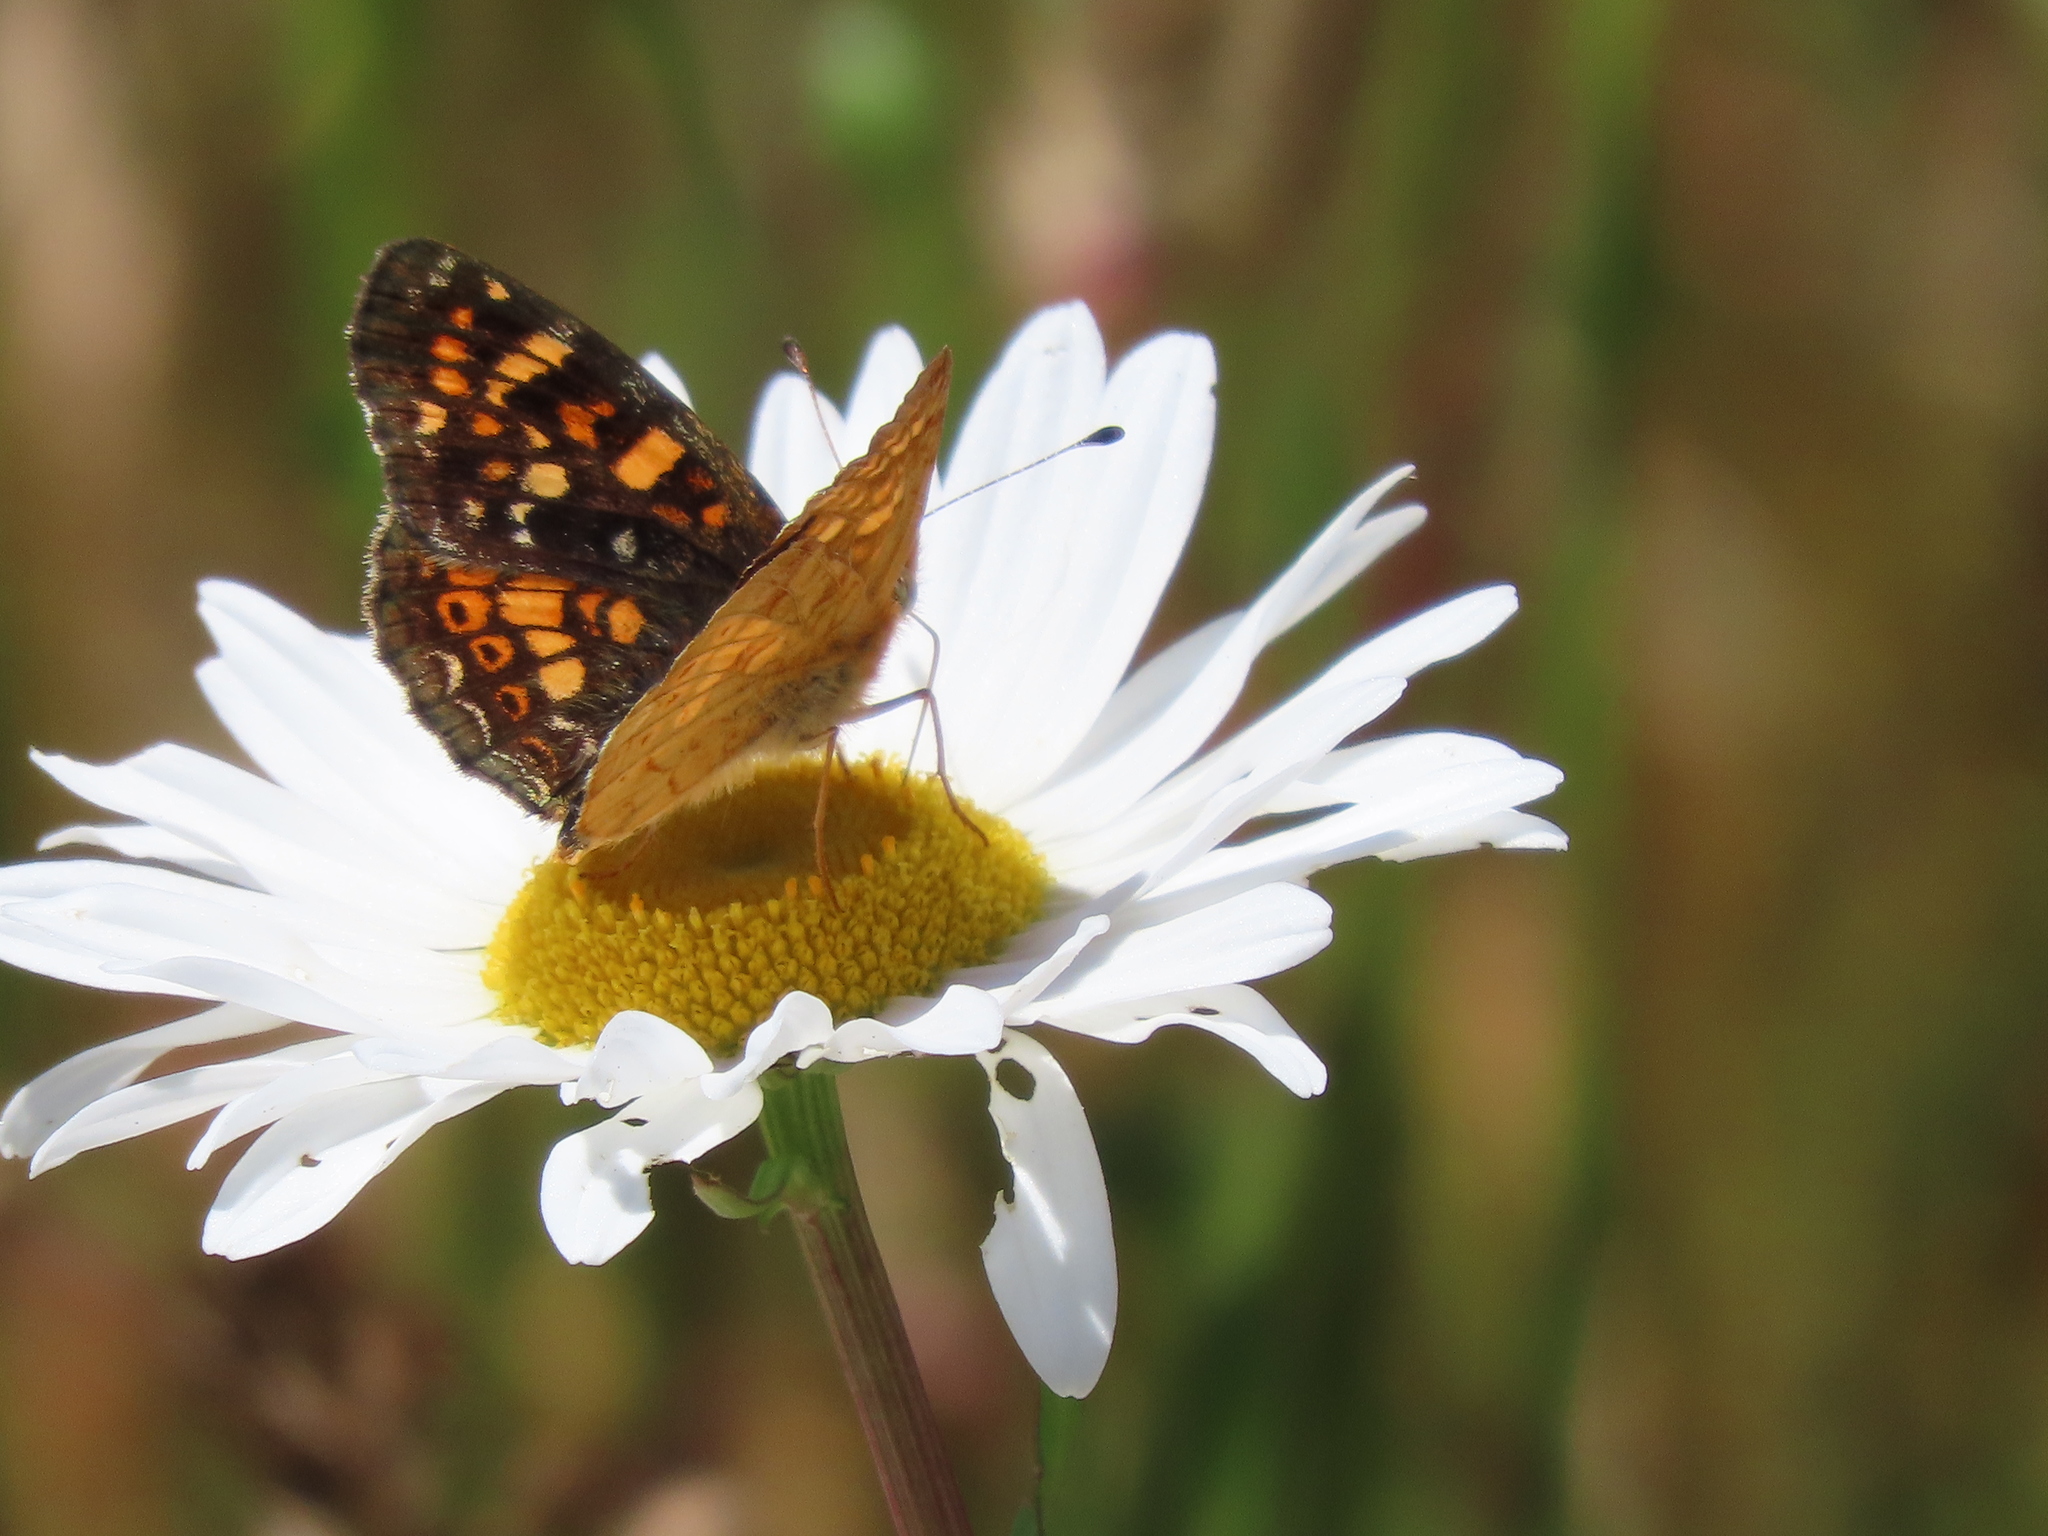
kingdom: Animalia
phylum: Arthropoda
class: Insecta
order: Lepidoptera
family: Nymphalidae
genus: Phyciodes
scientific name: Phyciodes tharos
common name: Pearl crescent
